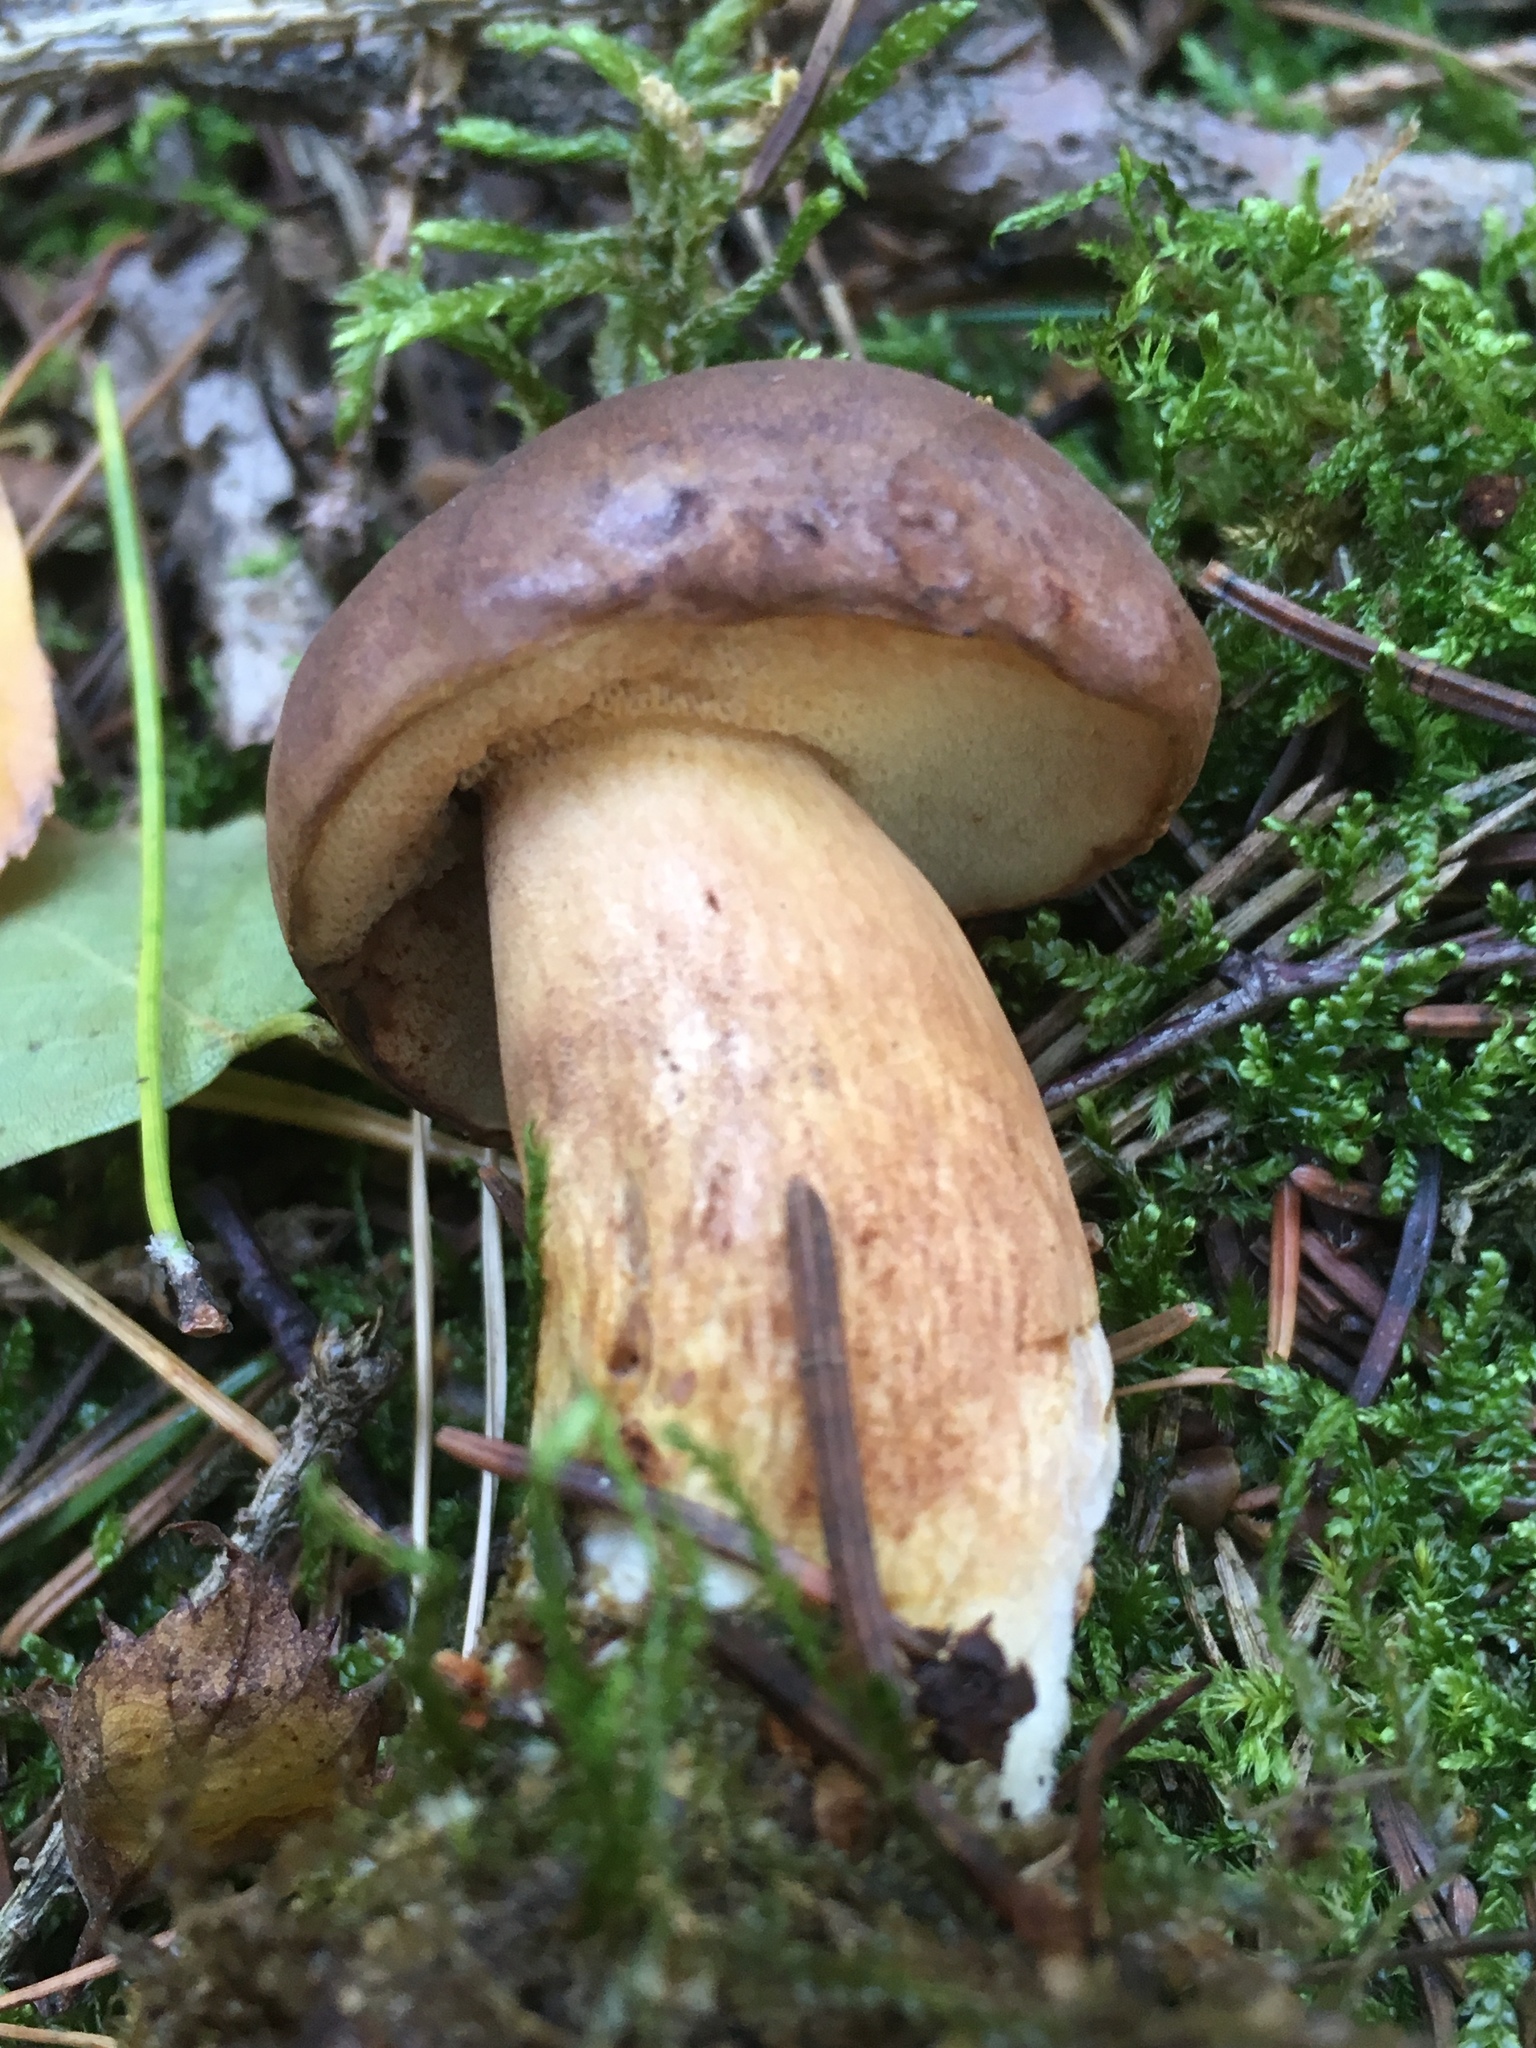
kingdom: Fungi
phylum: Basidiomycota
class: Agaricomycetes
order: Boletales
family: Boletaceae
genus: Imleria
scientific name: Imleria badia
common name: Bay bolete
